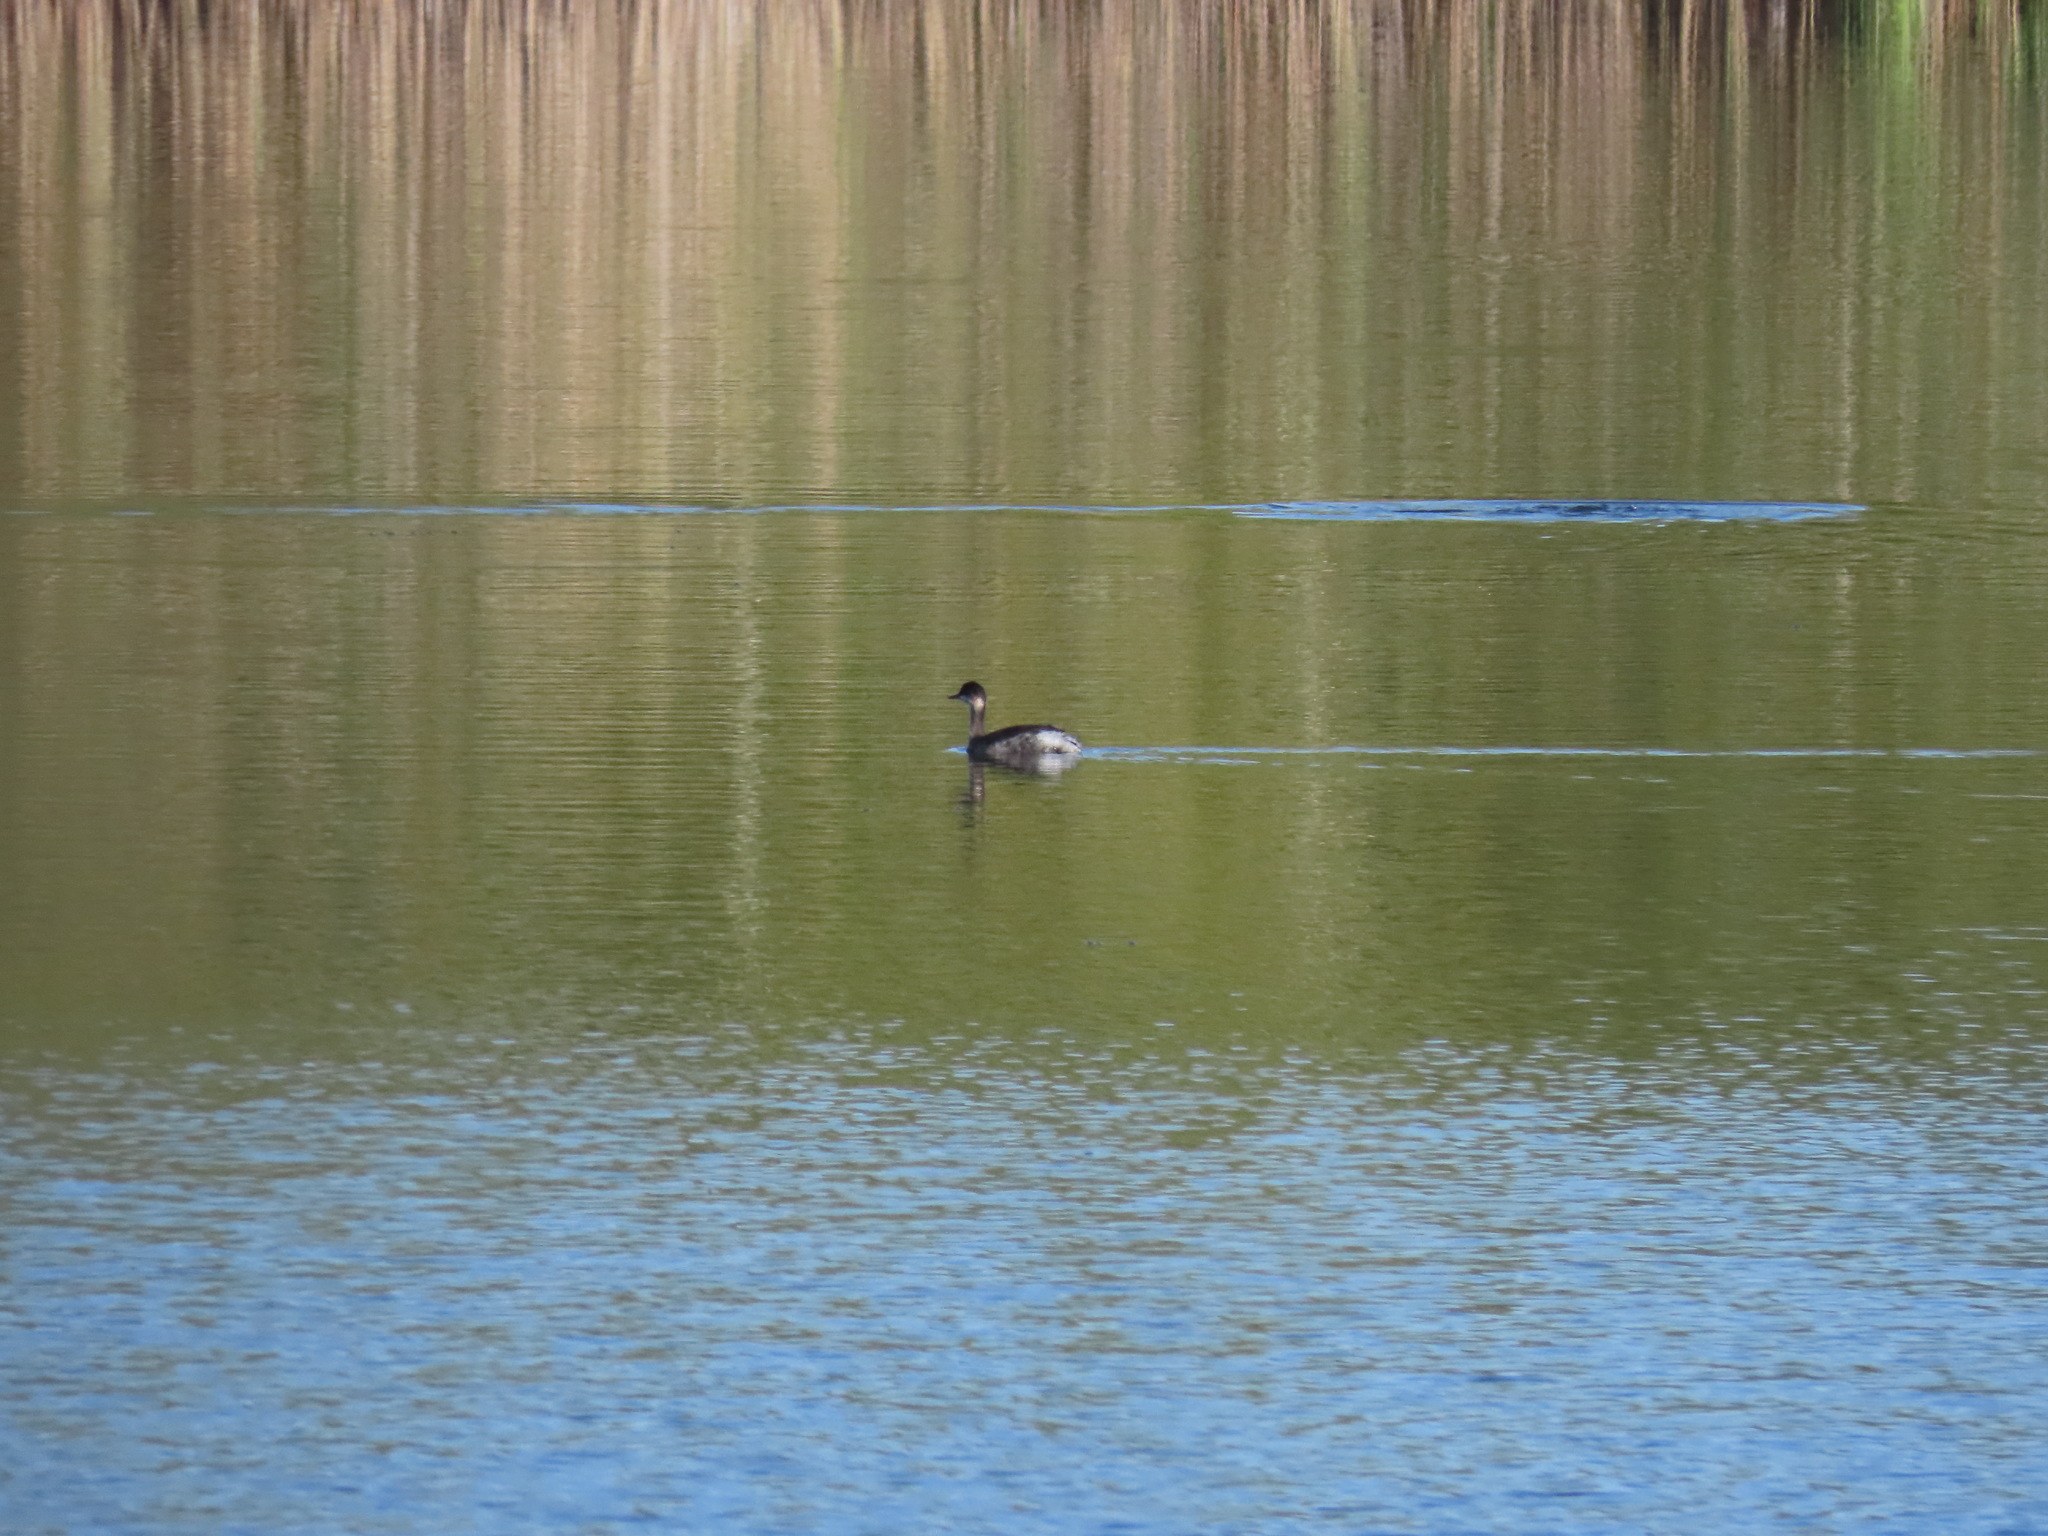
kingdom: Animalia
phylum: Chordata
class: Aves
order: Podicipediformes
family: Podicipedidae
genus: Podiceps
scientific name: Podiceps nigricollis
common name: Black-necked grebe
